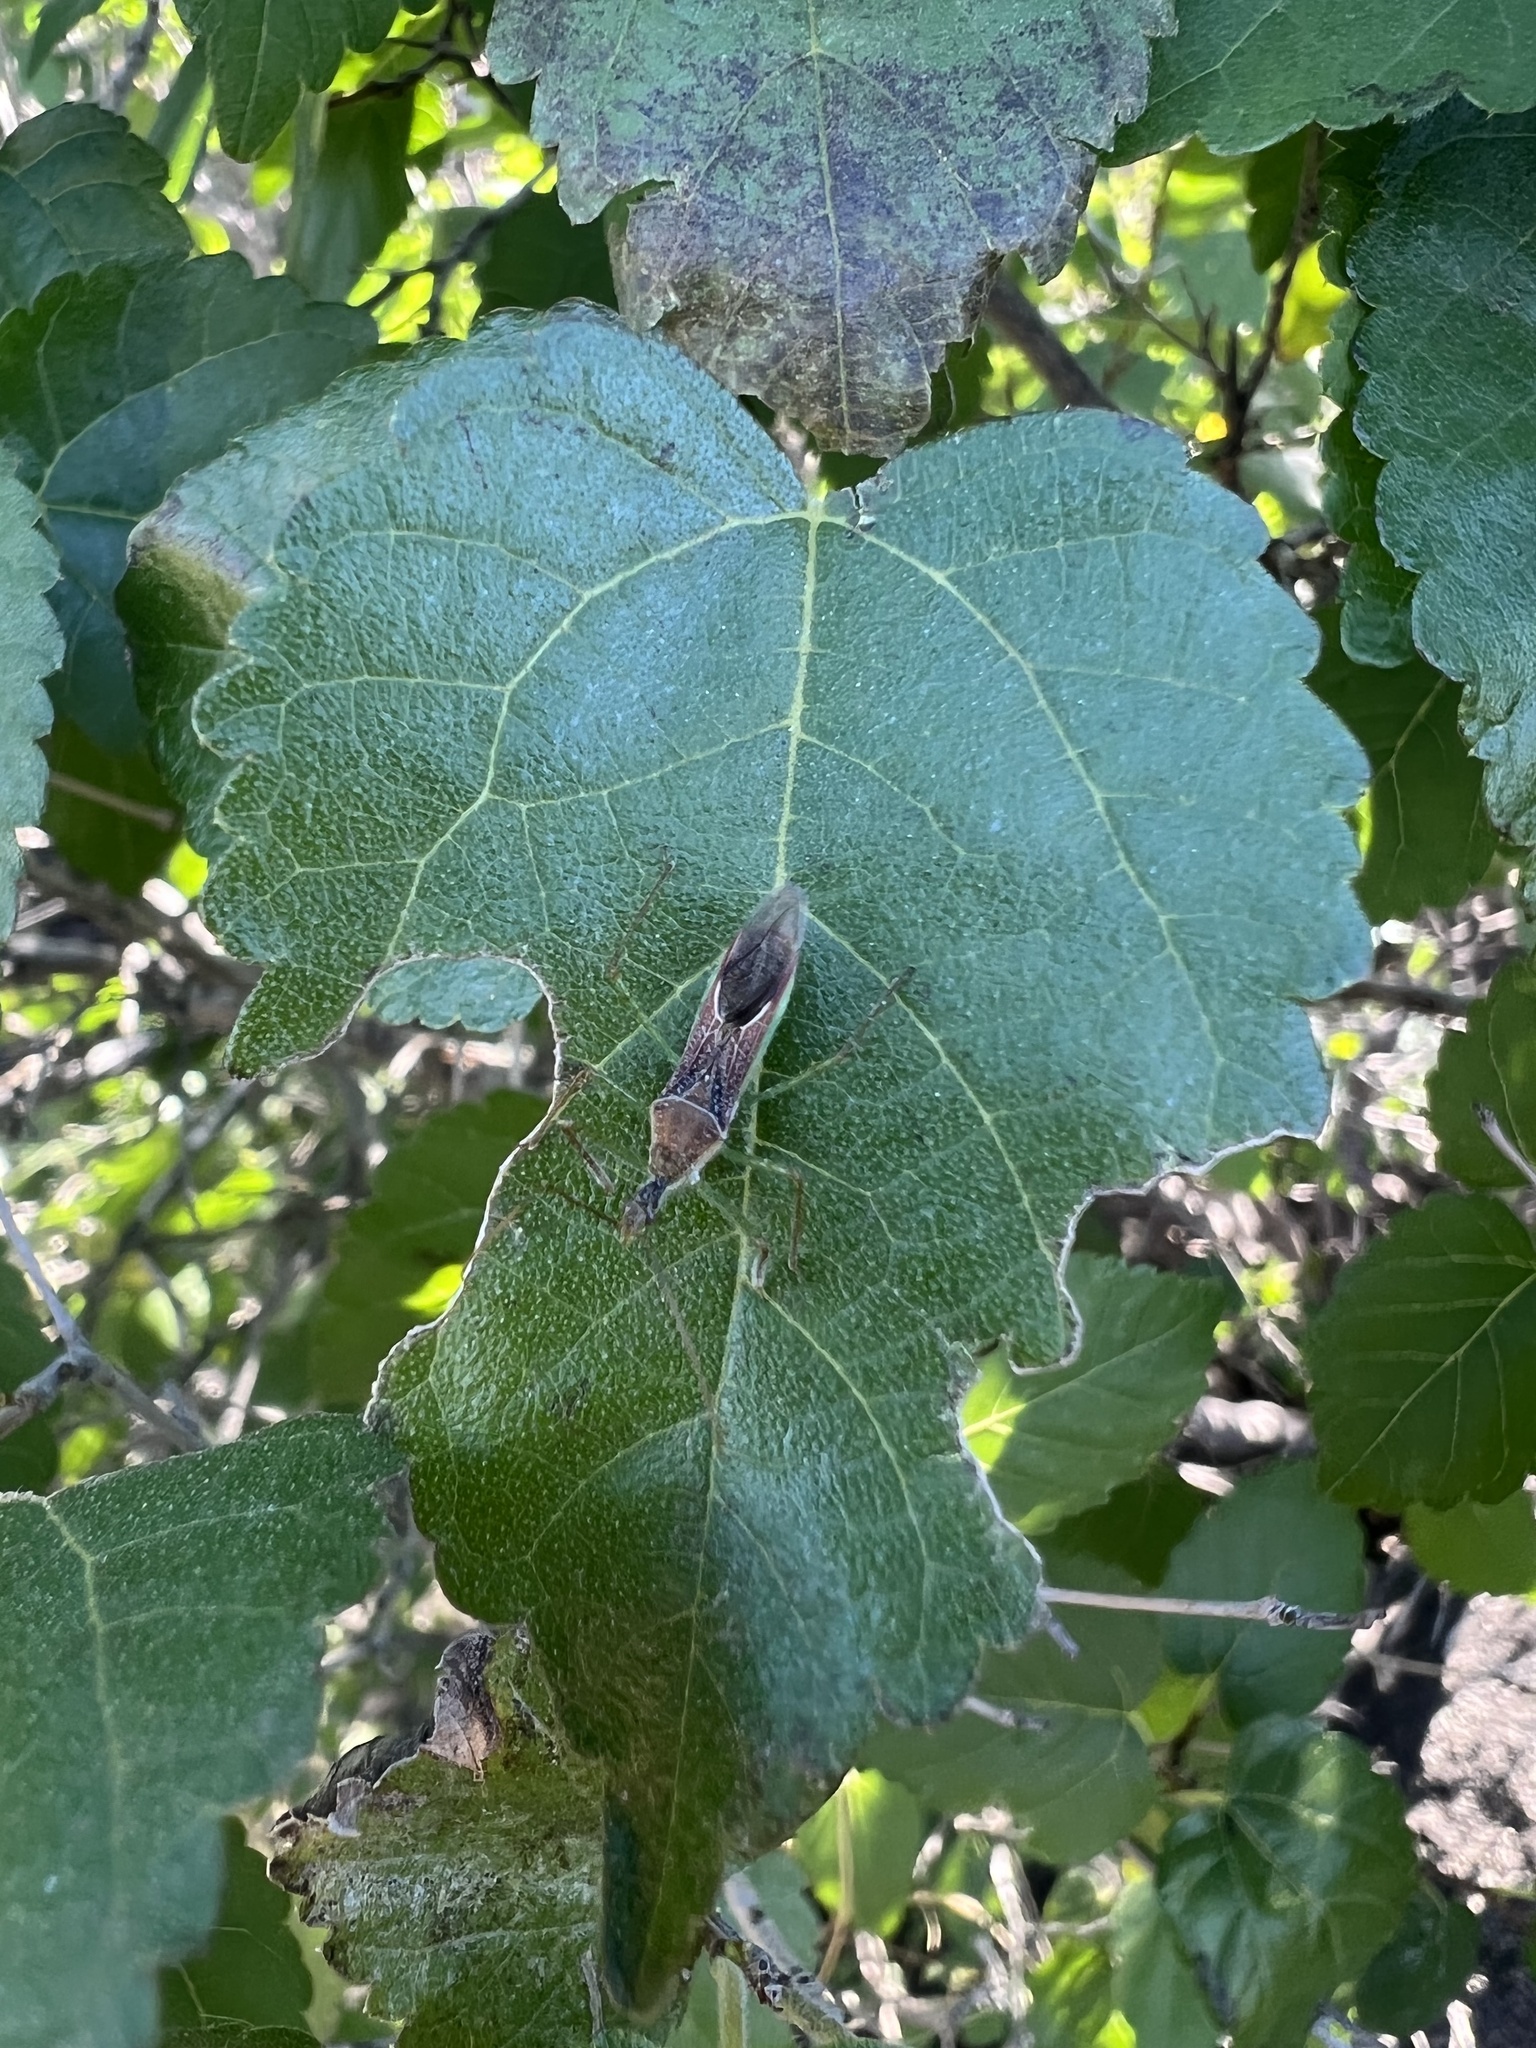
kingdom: Plantae
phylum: Tracheophyta
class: Magnoliopsida
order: Rosales
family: Moraceae
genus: Morus
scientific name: Morus microphylla
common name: Mexican mulberry
